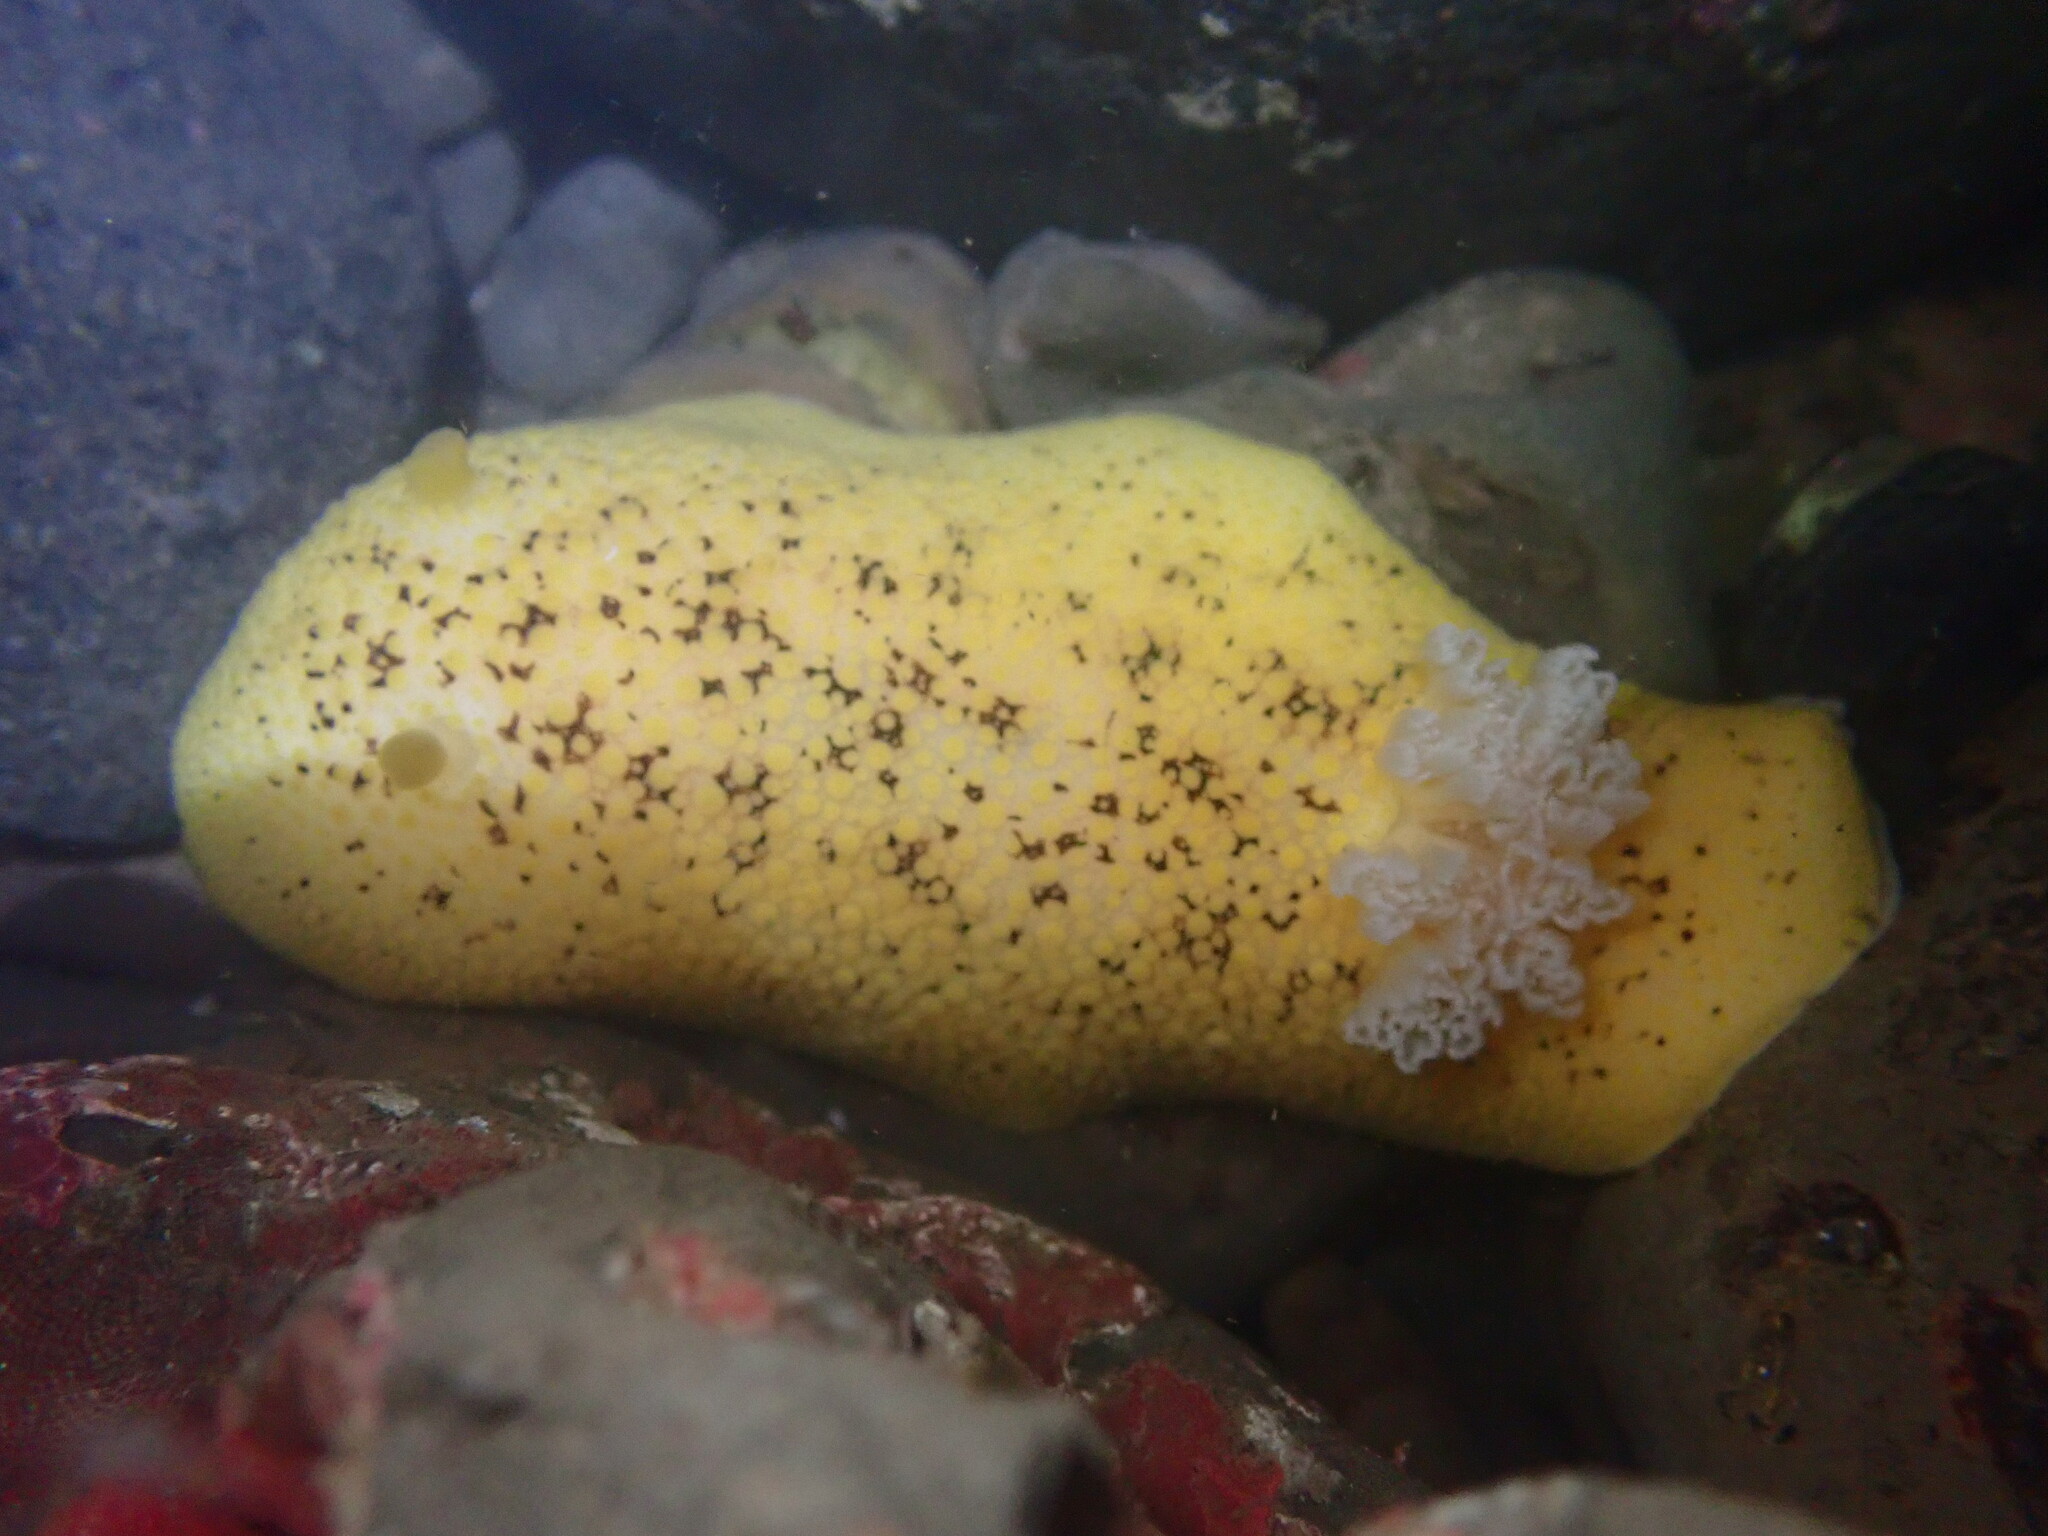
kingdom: Animalia
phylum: Mollusca
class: Gastropoda
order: Nudibranchia
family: Discodorididae
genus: Peltodoris
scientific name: Peltodoris nobilis
